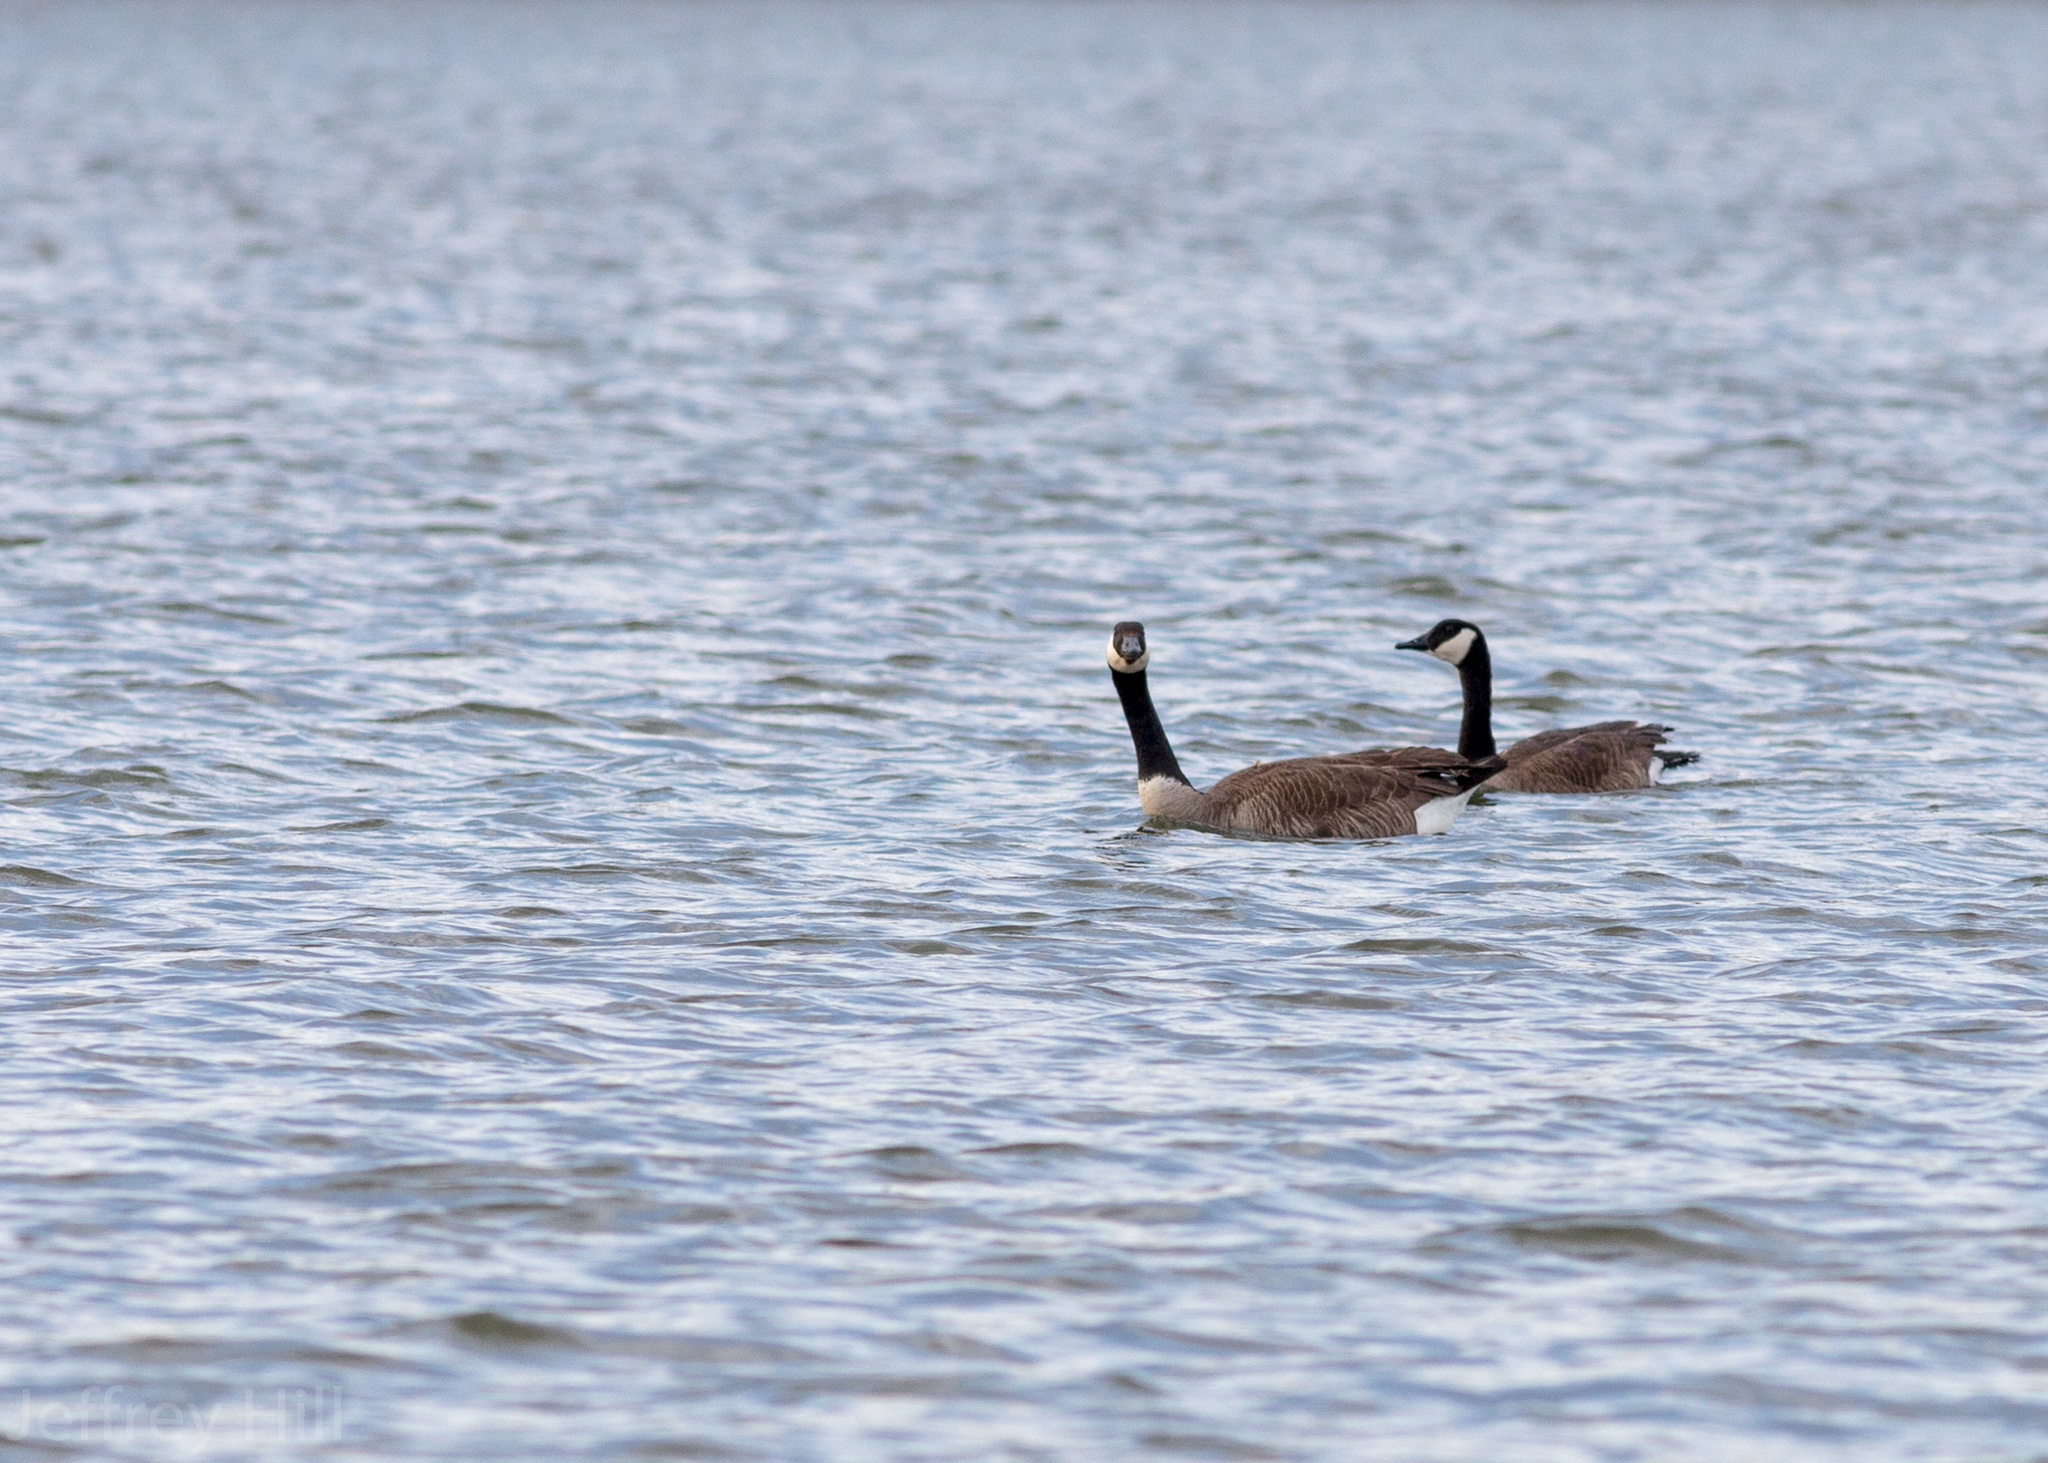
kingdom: Animalia
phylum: Chordata
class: Aves
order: Anseriformes
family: Anatidae
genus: Branta
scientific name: Branta canadensis
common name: Canada goose
